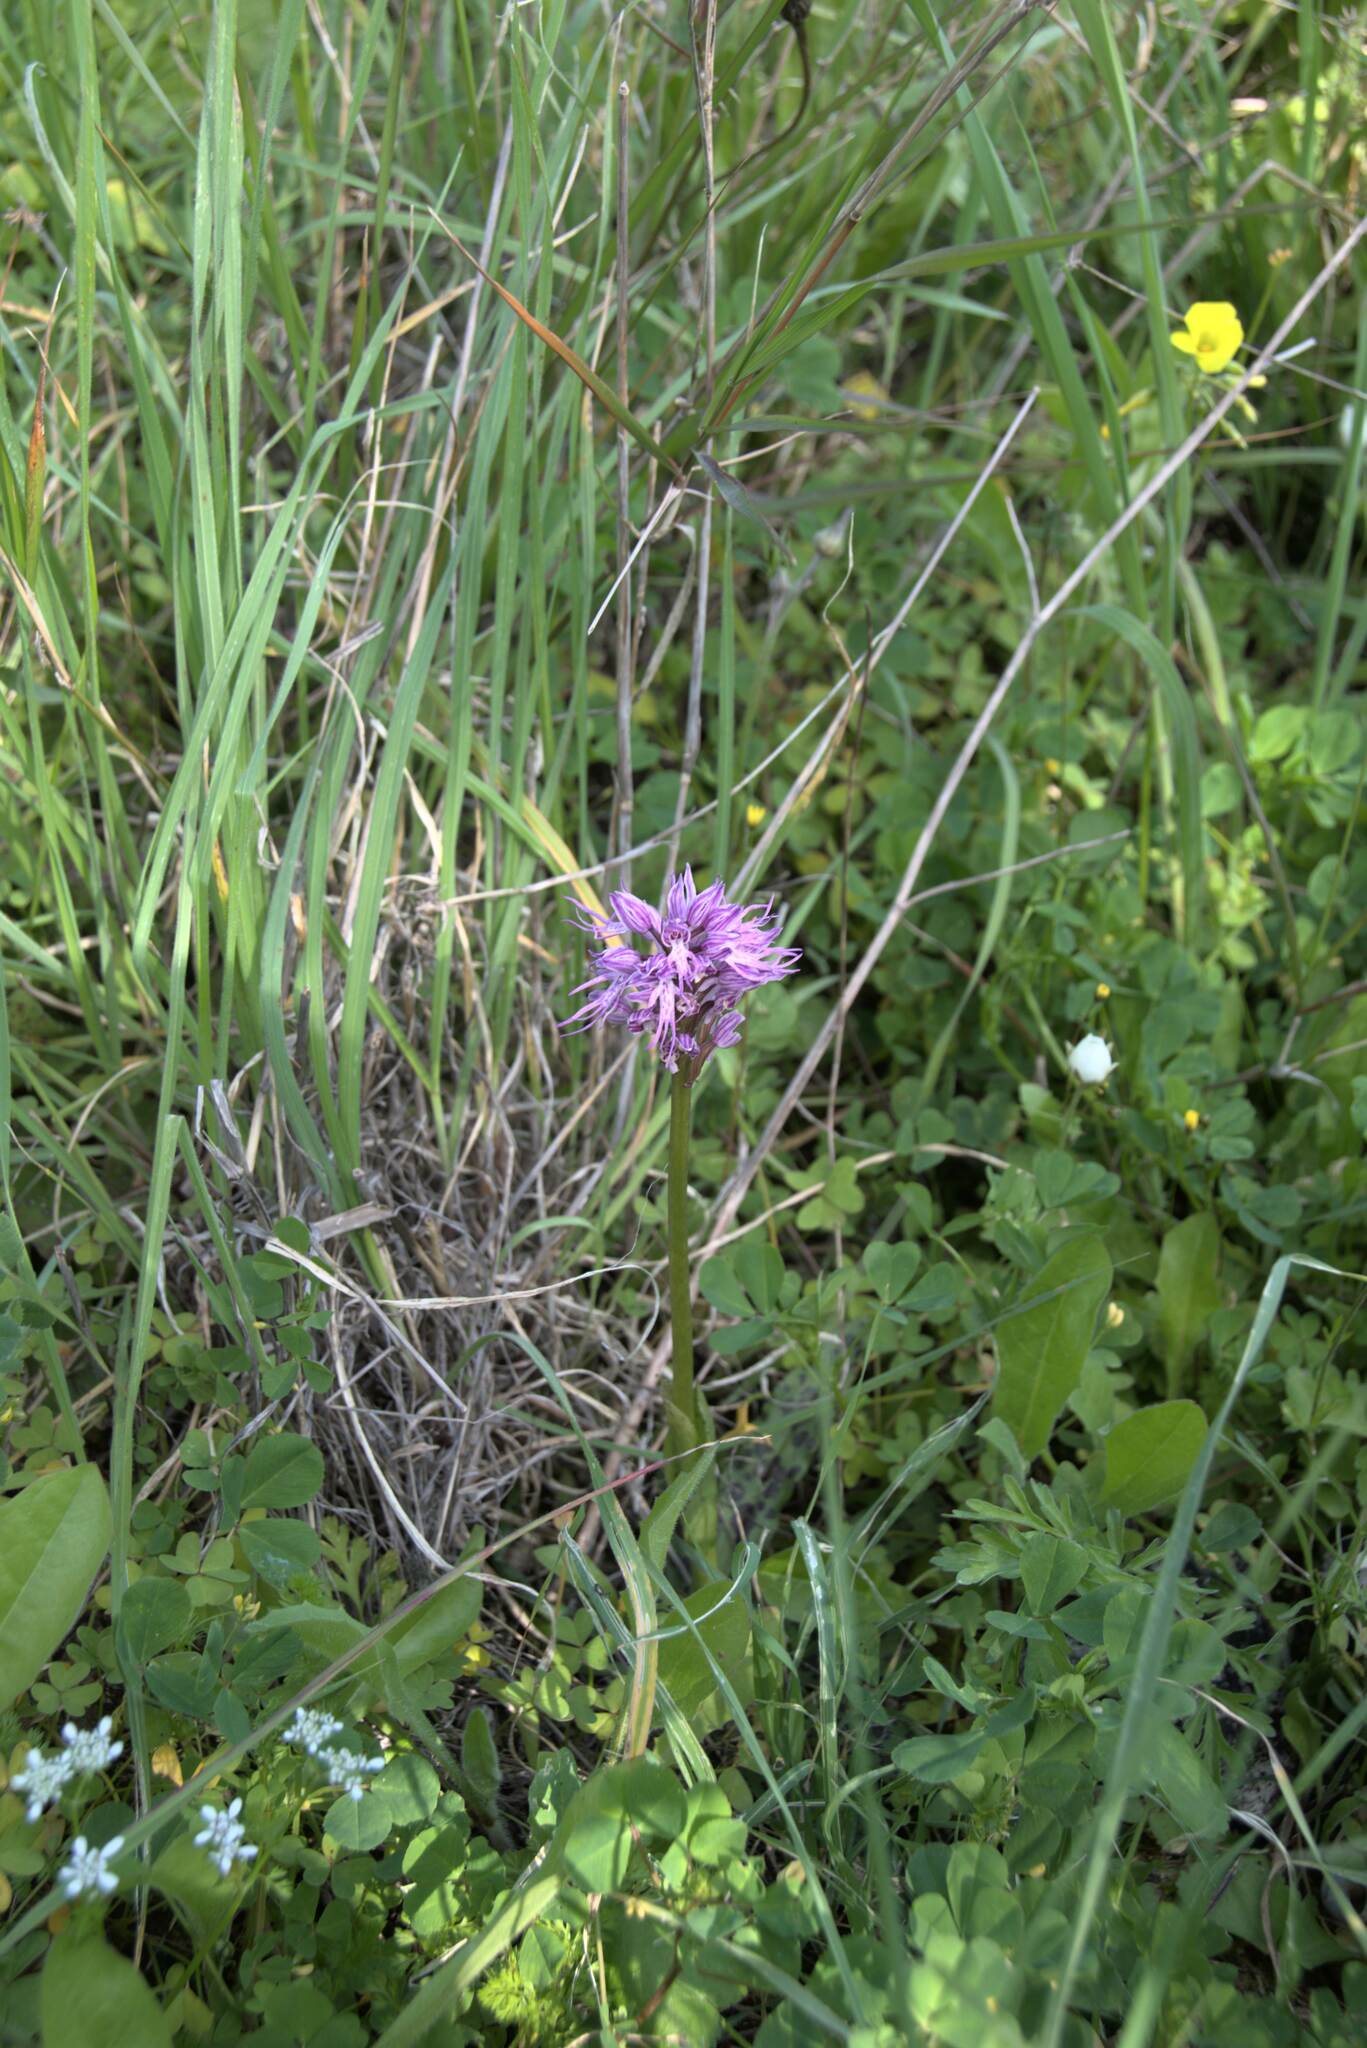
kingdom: Plantae
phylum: Tracheophyta
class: Liliopsida
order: Asparagales
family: Orchidaceae
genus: Orchis
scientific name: Orchis italica
